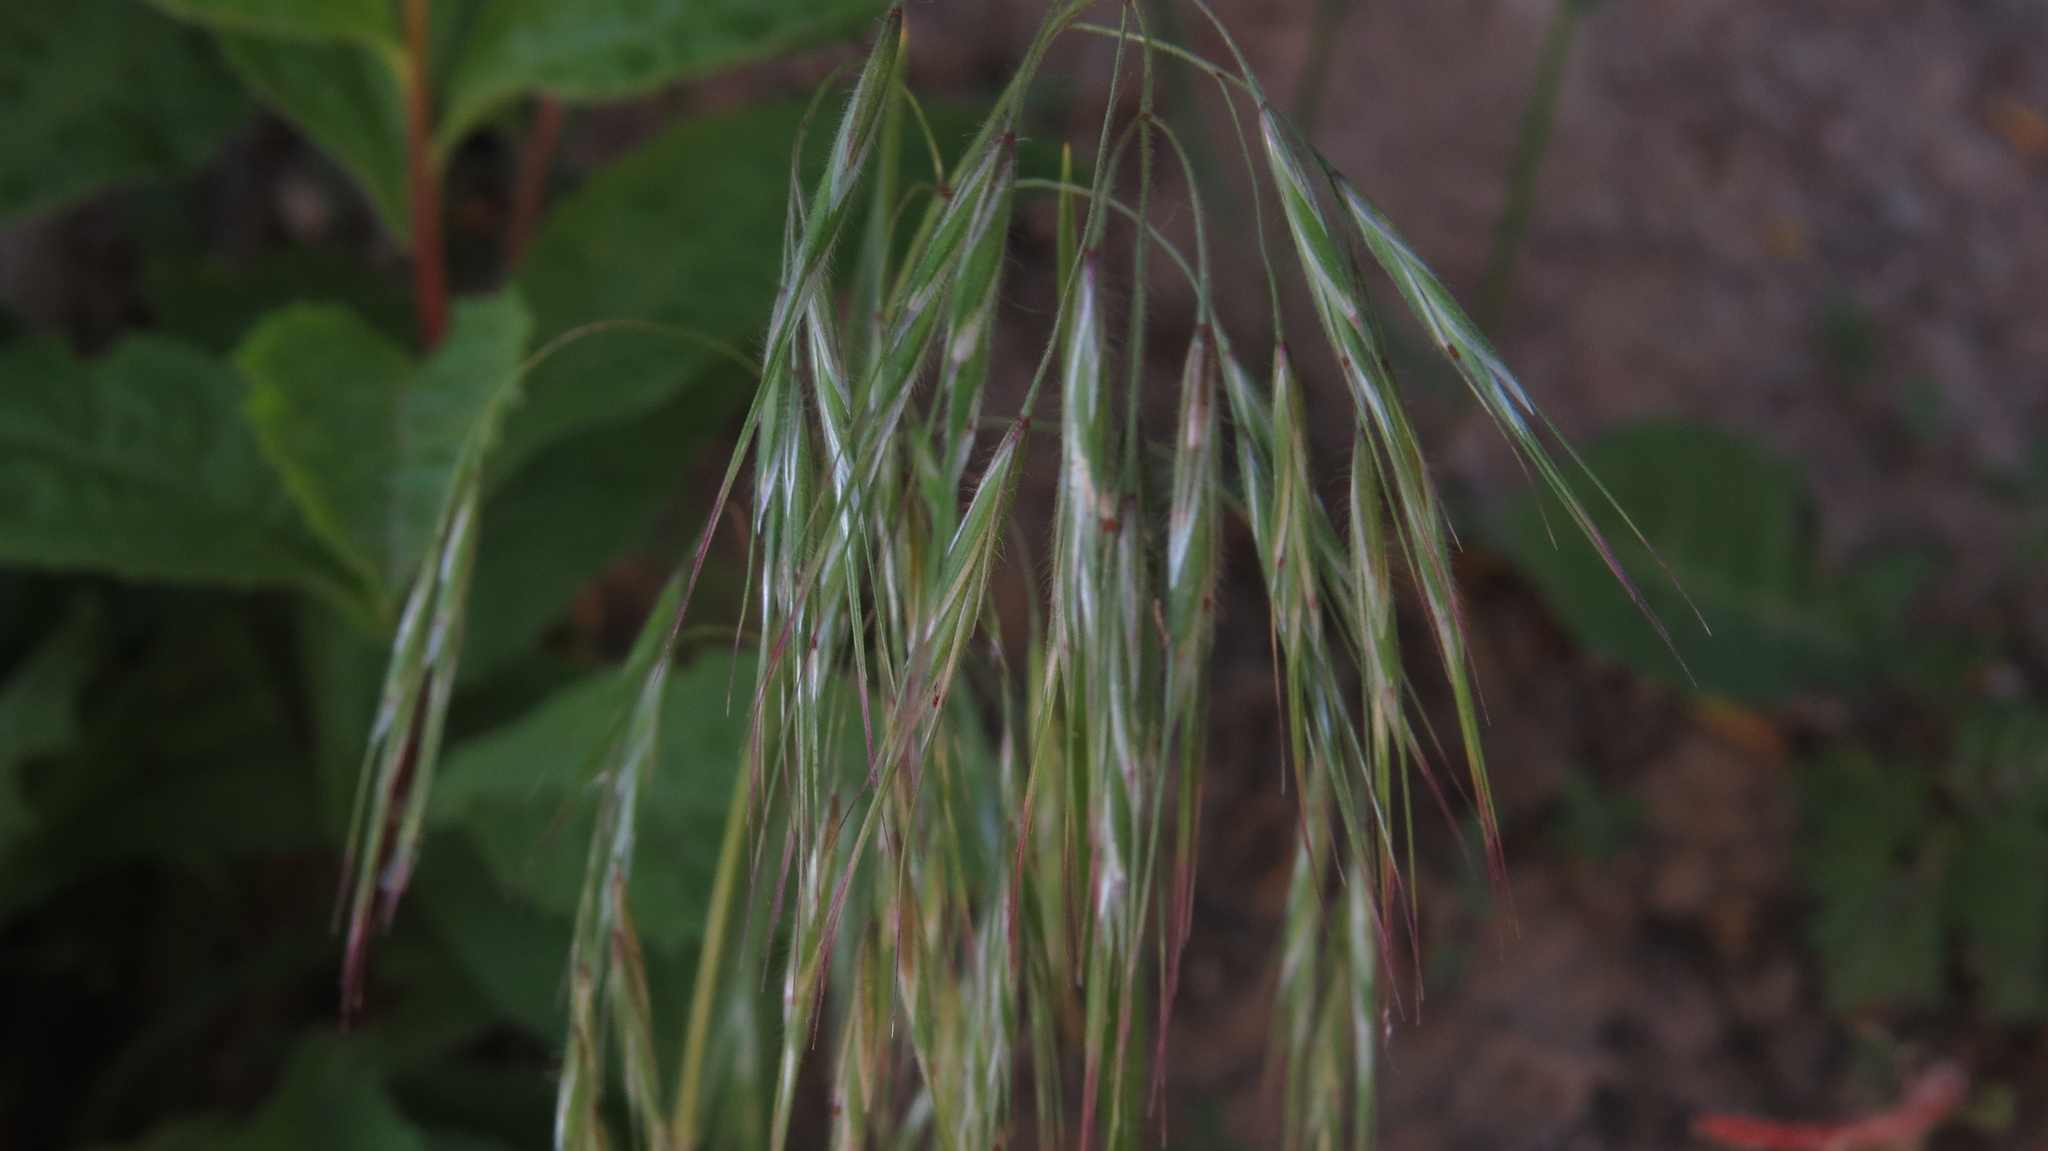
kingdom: Plantae
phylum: Tracheophyta
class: Liliopsida
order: Poales
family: Poaceae
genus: Bromus
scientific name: Bromus tectorum
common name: Cheatgrass
